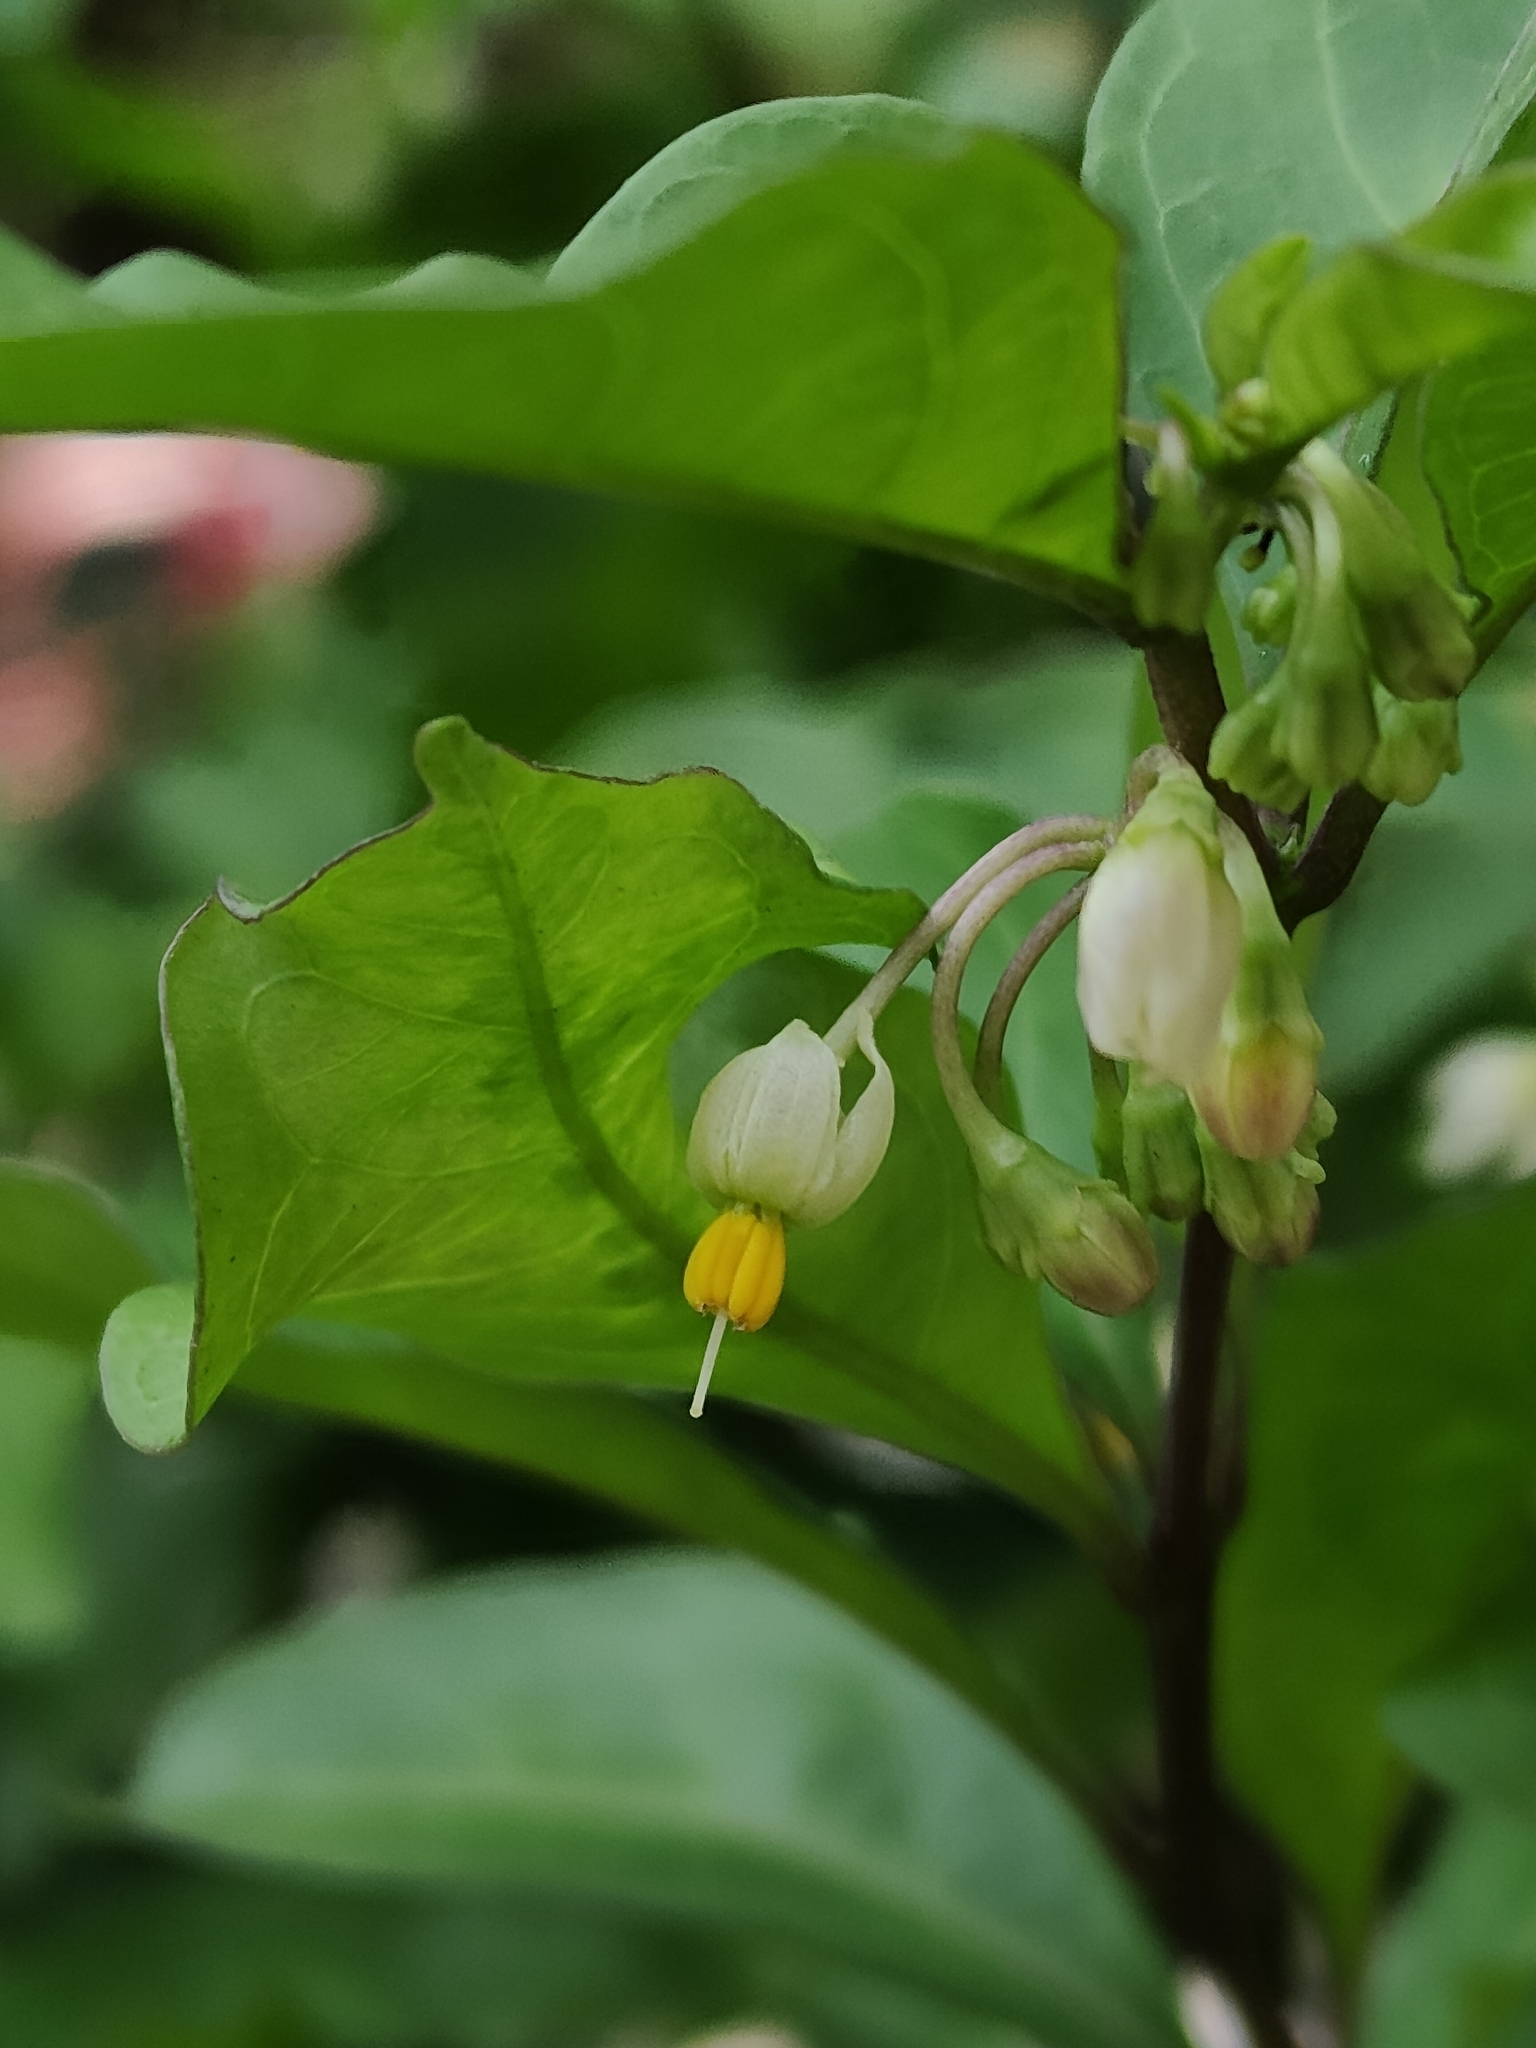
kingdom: Plantae
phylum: Tracheophyta
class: Magnoliopsida
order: Solanales
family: Solanaceae
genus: Solanum
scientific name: Solanum diphyllum
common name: Twoleaf nightshade
